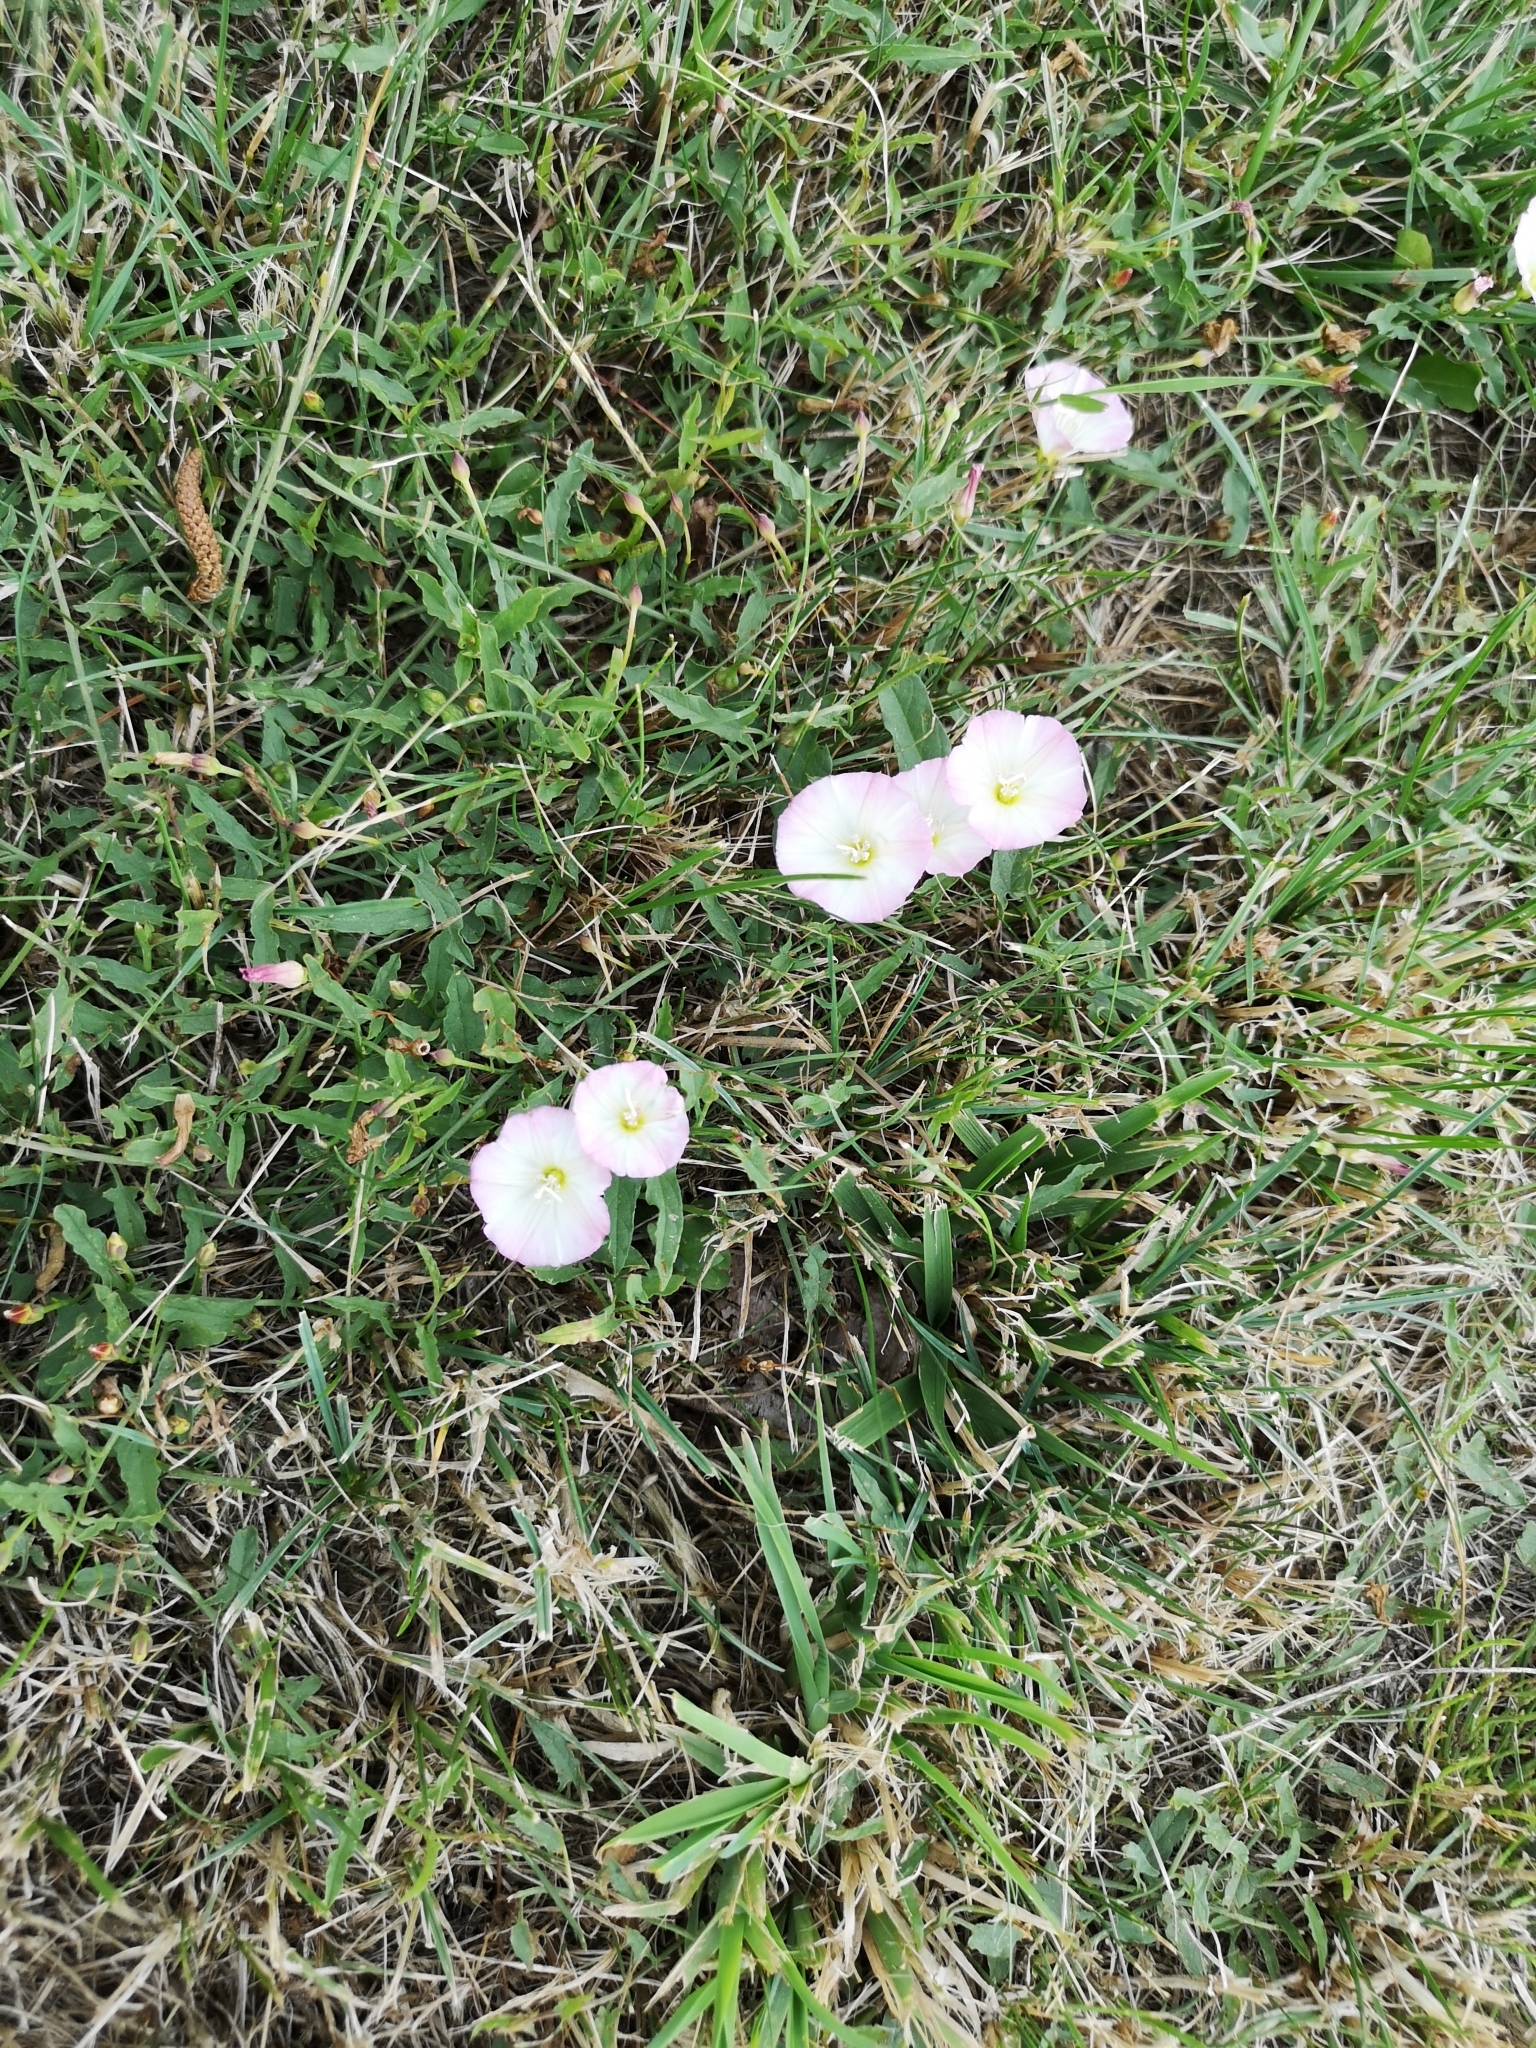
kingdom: Plantae
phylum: Tracheophyta
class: Magnoliopsida
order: Solanales
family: Convolvulaceae
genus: Convolvulus
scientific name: Convolvulus arvensis
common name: Field bindweed
